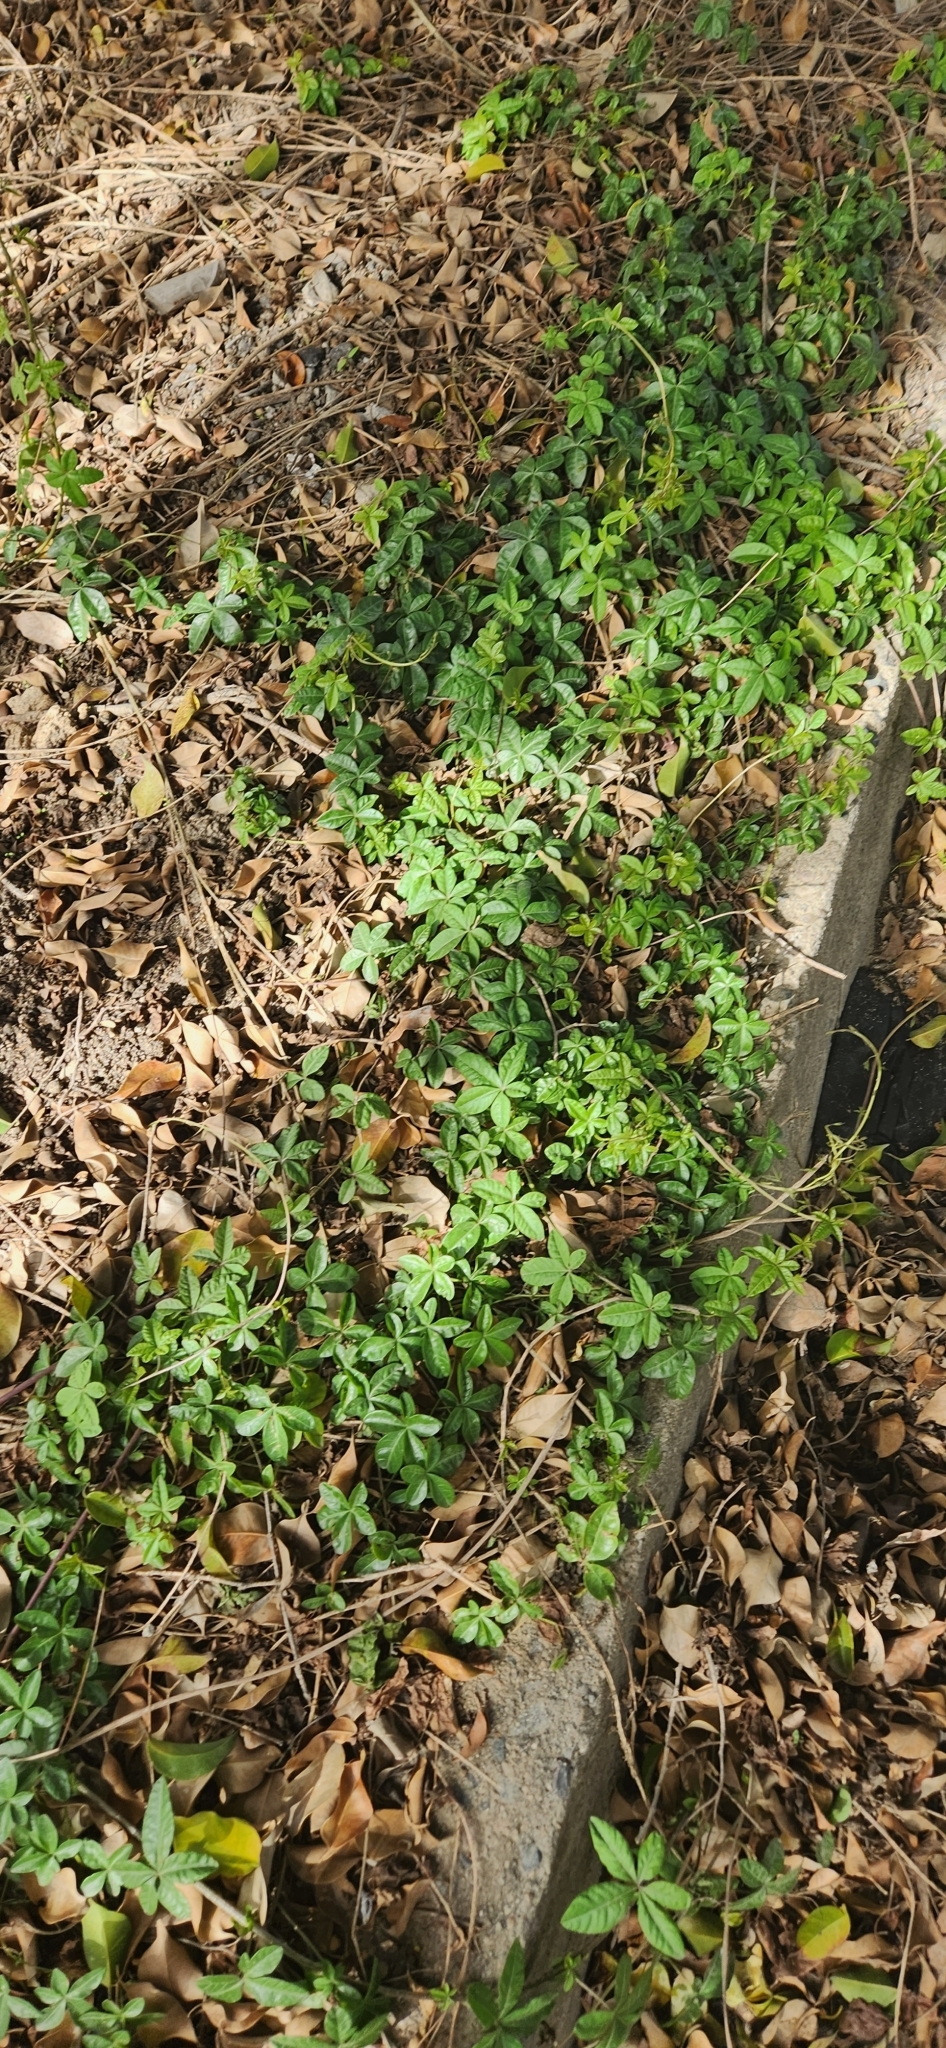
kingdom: Plantae
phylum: Tracheophyta
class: Magnoliopsida
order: Solanales
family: Convolvulaceae
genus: Ipomoea
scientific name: Ipomoea cairica
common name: Mile a minute vine
